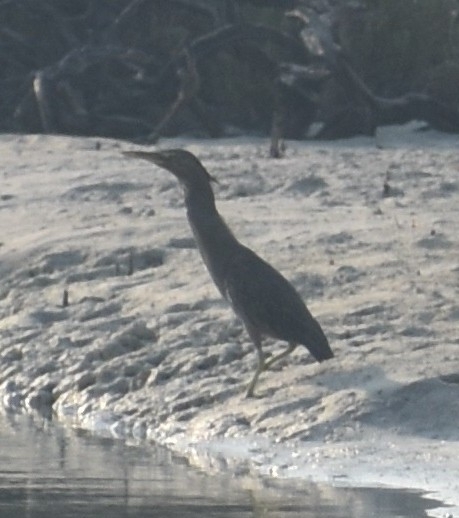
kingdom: Animalia
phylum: Chordata
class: Aves
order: Pelecaniformes
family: Ardeidae
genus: Butorides
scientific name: Butorides striata
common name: Striated heron
